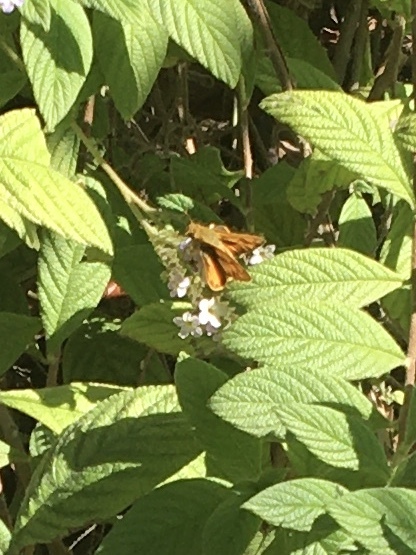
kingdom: Animalia
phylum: Arthropoda
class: Insecta
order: Lepidoptera
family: Hesperiidae
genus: Hylephila
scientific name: Hylephila phyleus
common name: Fiery skipper
